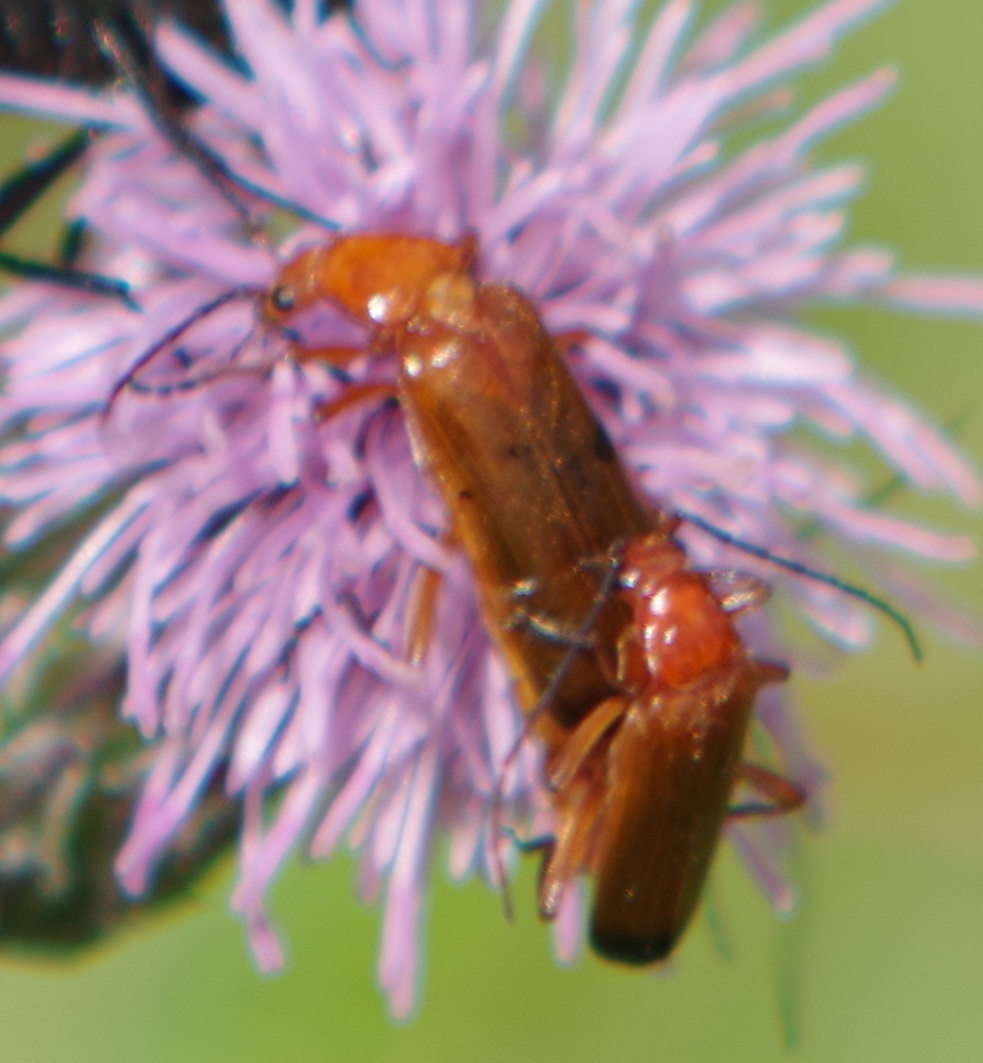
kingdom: Animalia
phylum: Arthropoda
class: Insecta
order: Coleoptera
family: Cantharidae
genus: Rhagonycha
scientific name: Rhagonycha fulva
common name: Common red soldier beetle
